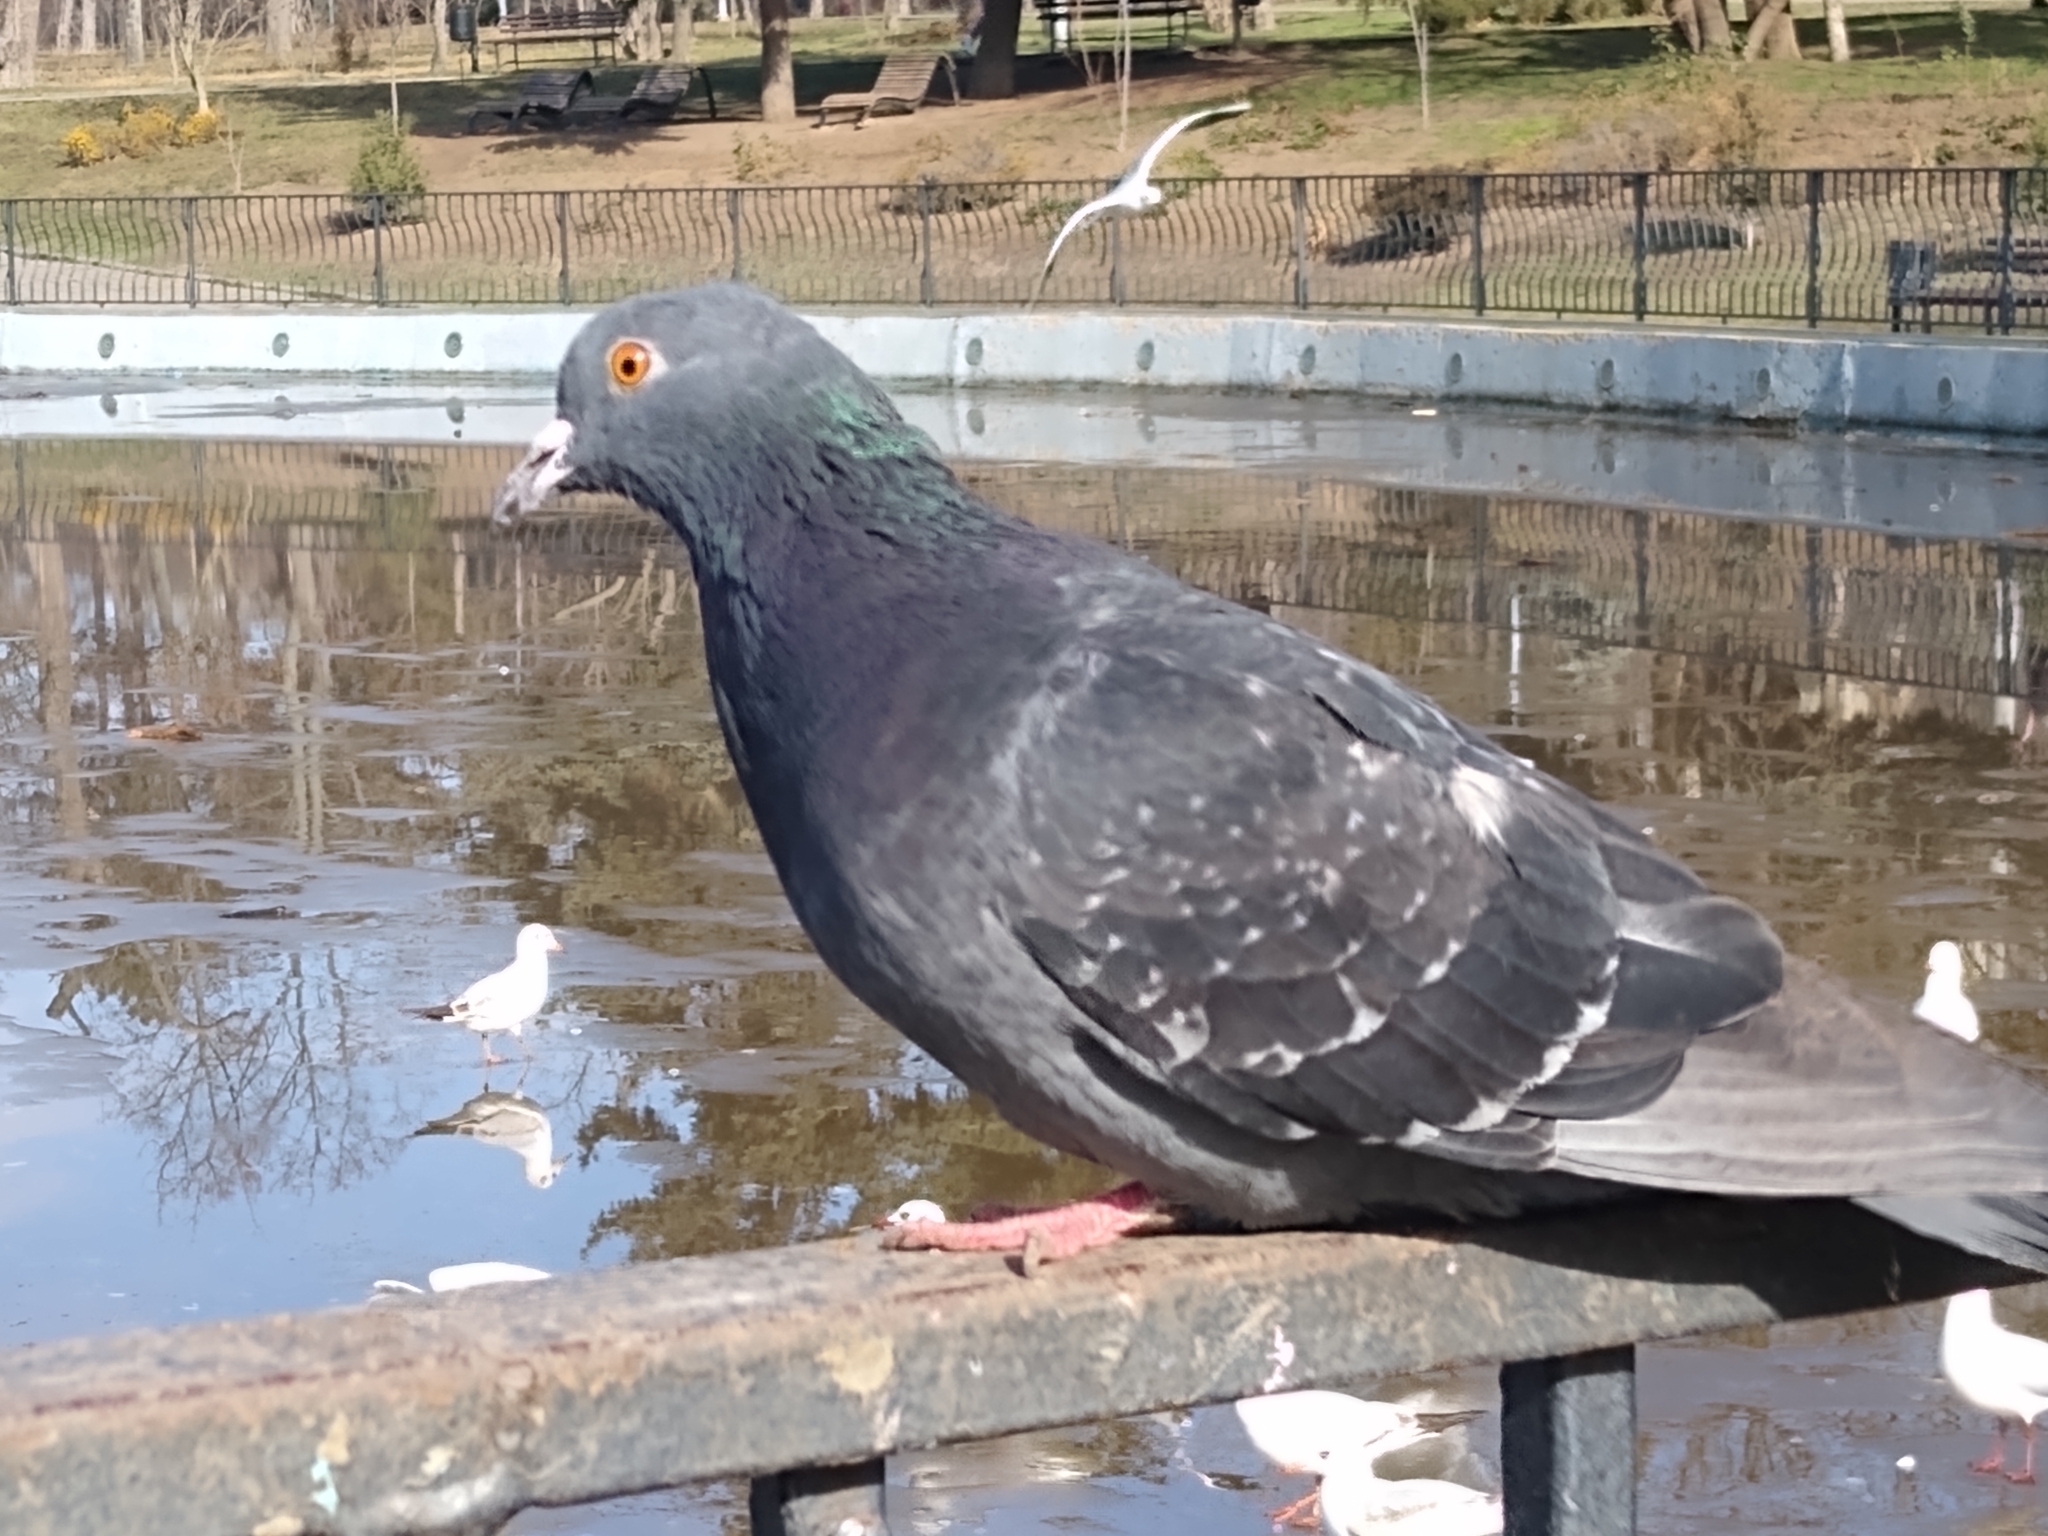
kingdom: Animalia
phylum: Chordata
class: Aves
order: Columbiformes
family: Columbidae
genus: Columba
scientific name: Columba livia
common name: Rock pigeon
